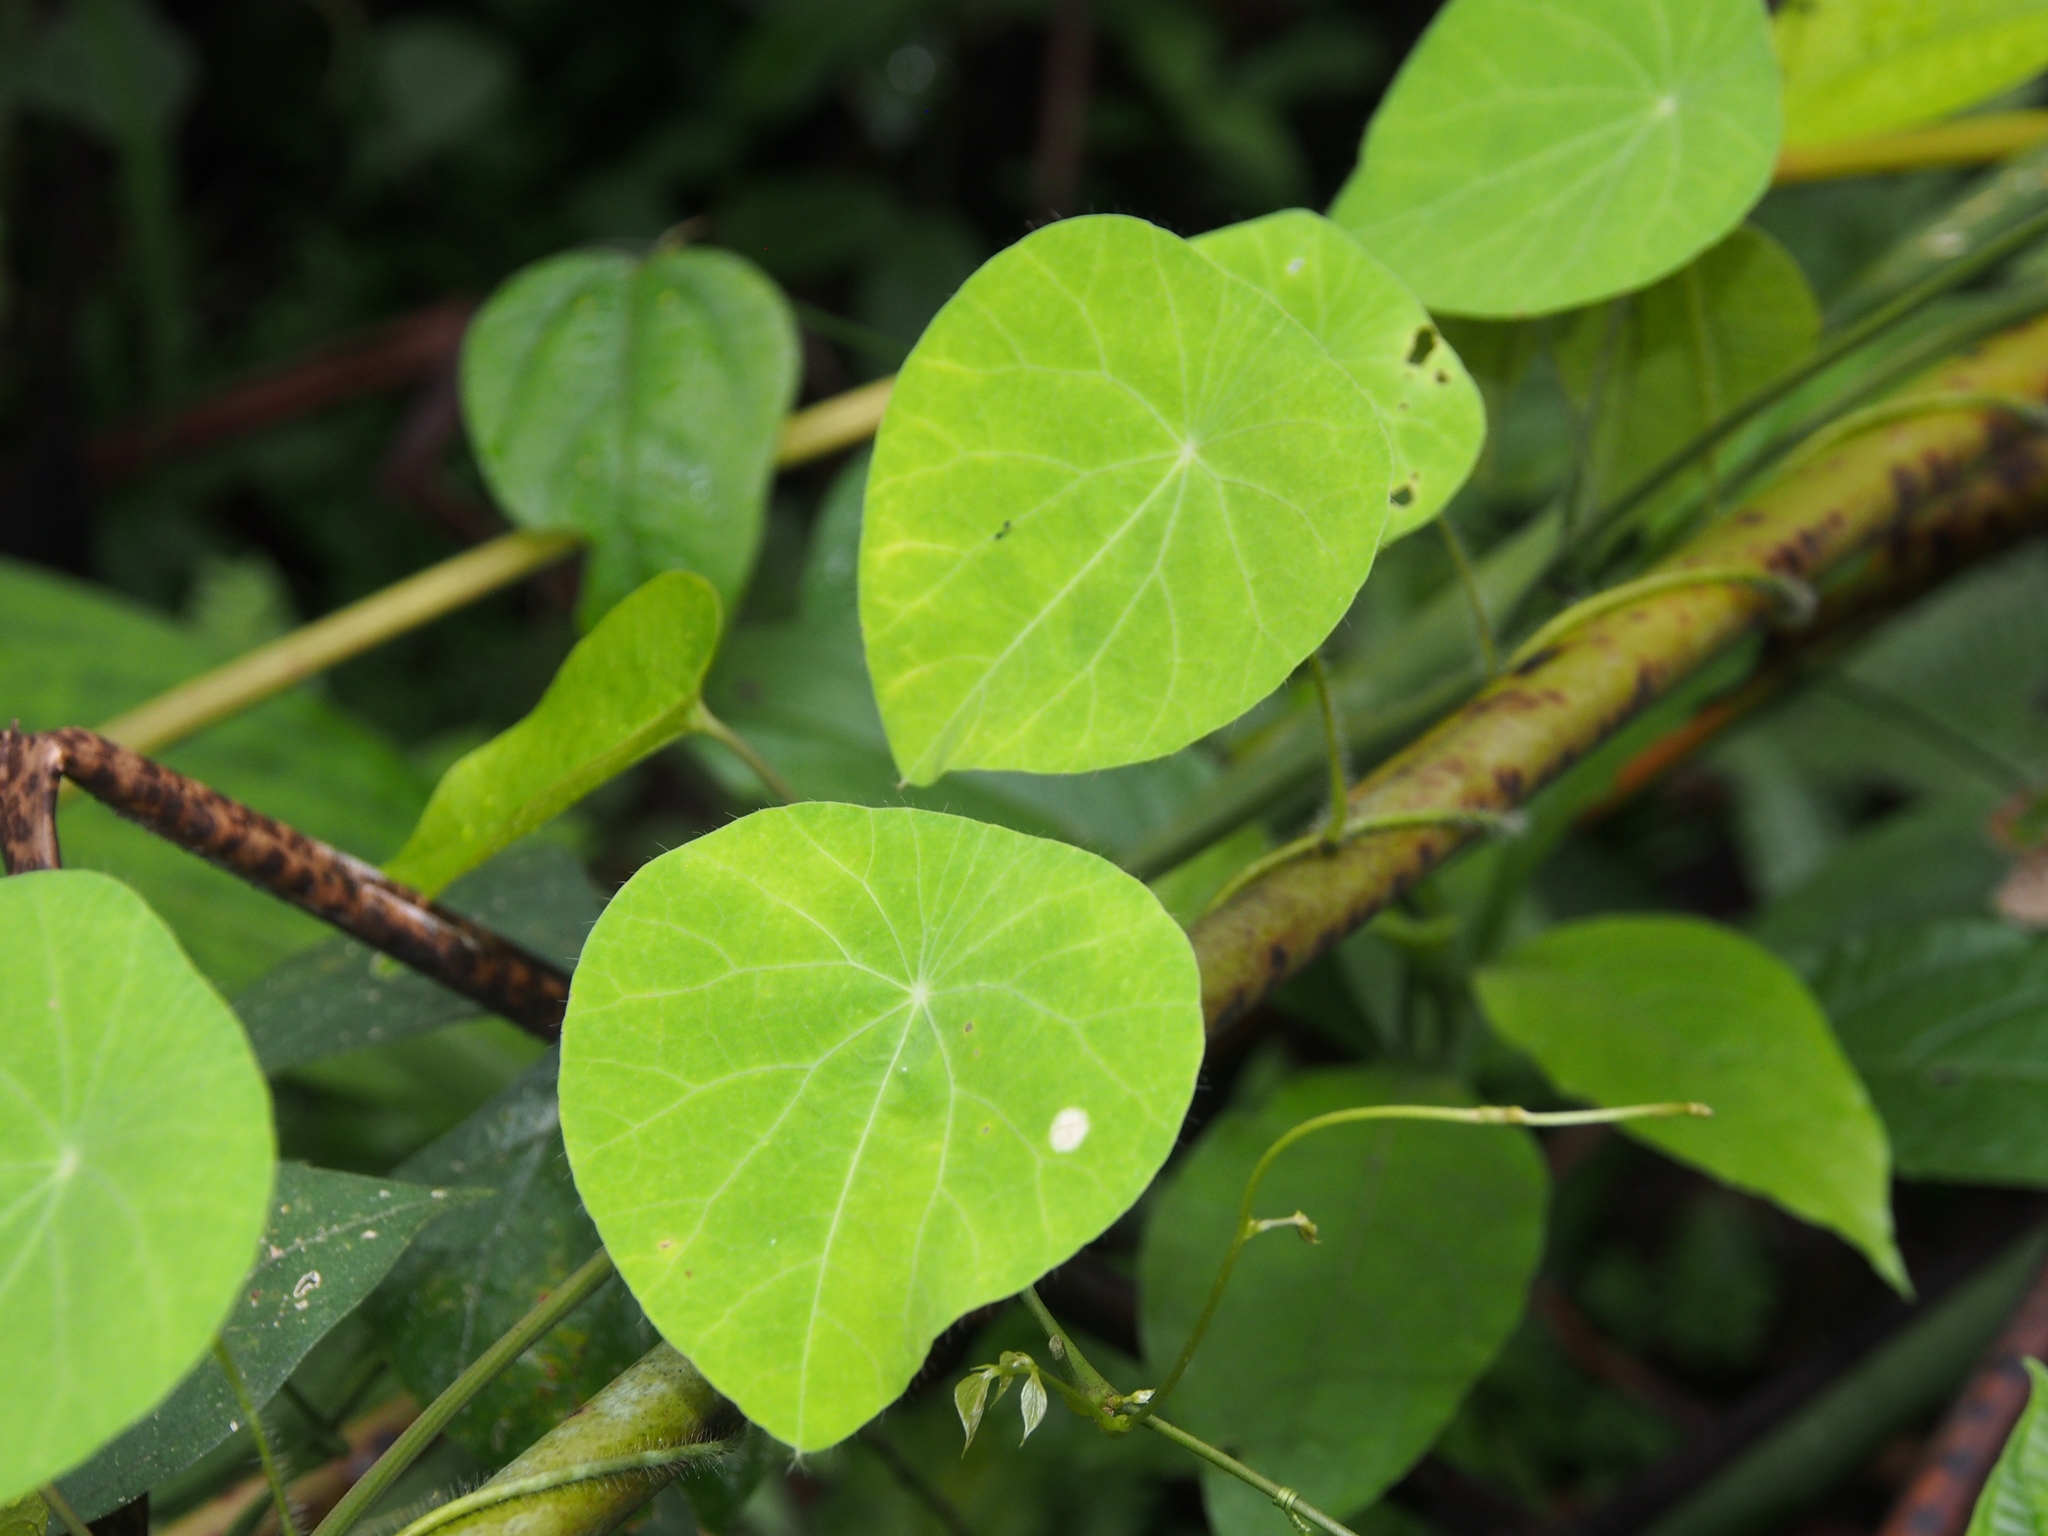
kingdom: Plantae
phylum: Tracheophyta
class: Magnoliopsida
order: Ranunculales
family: Menispermaceae
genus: Cissampelos
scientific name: Cissampelos tropaeolifolia
